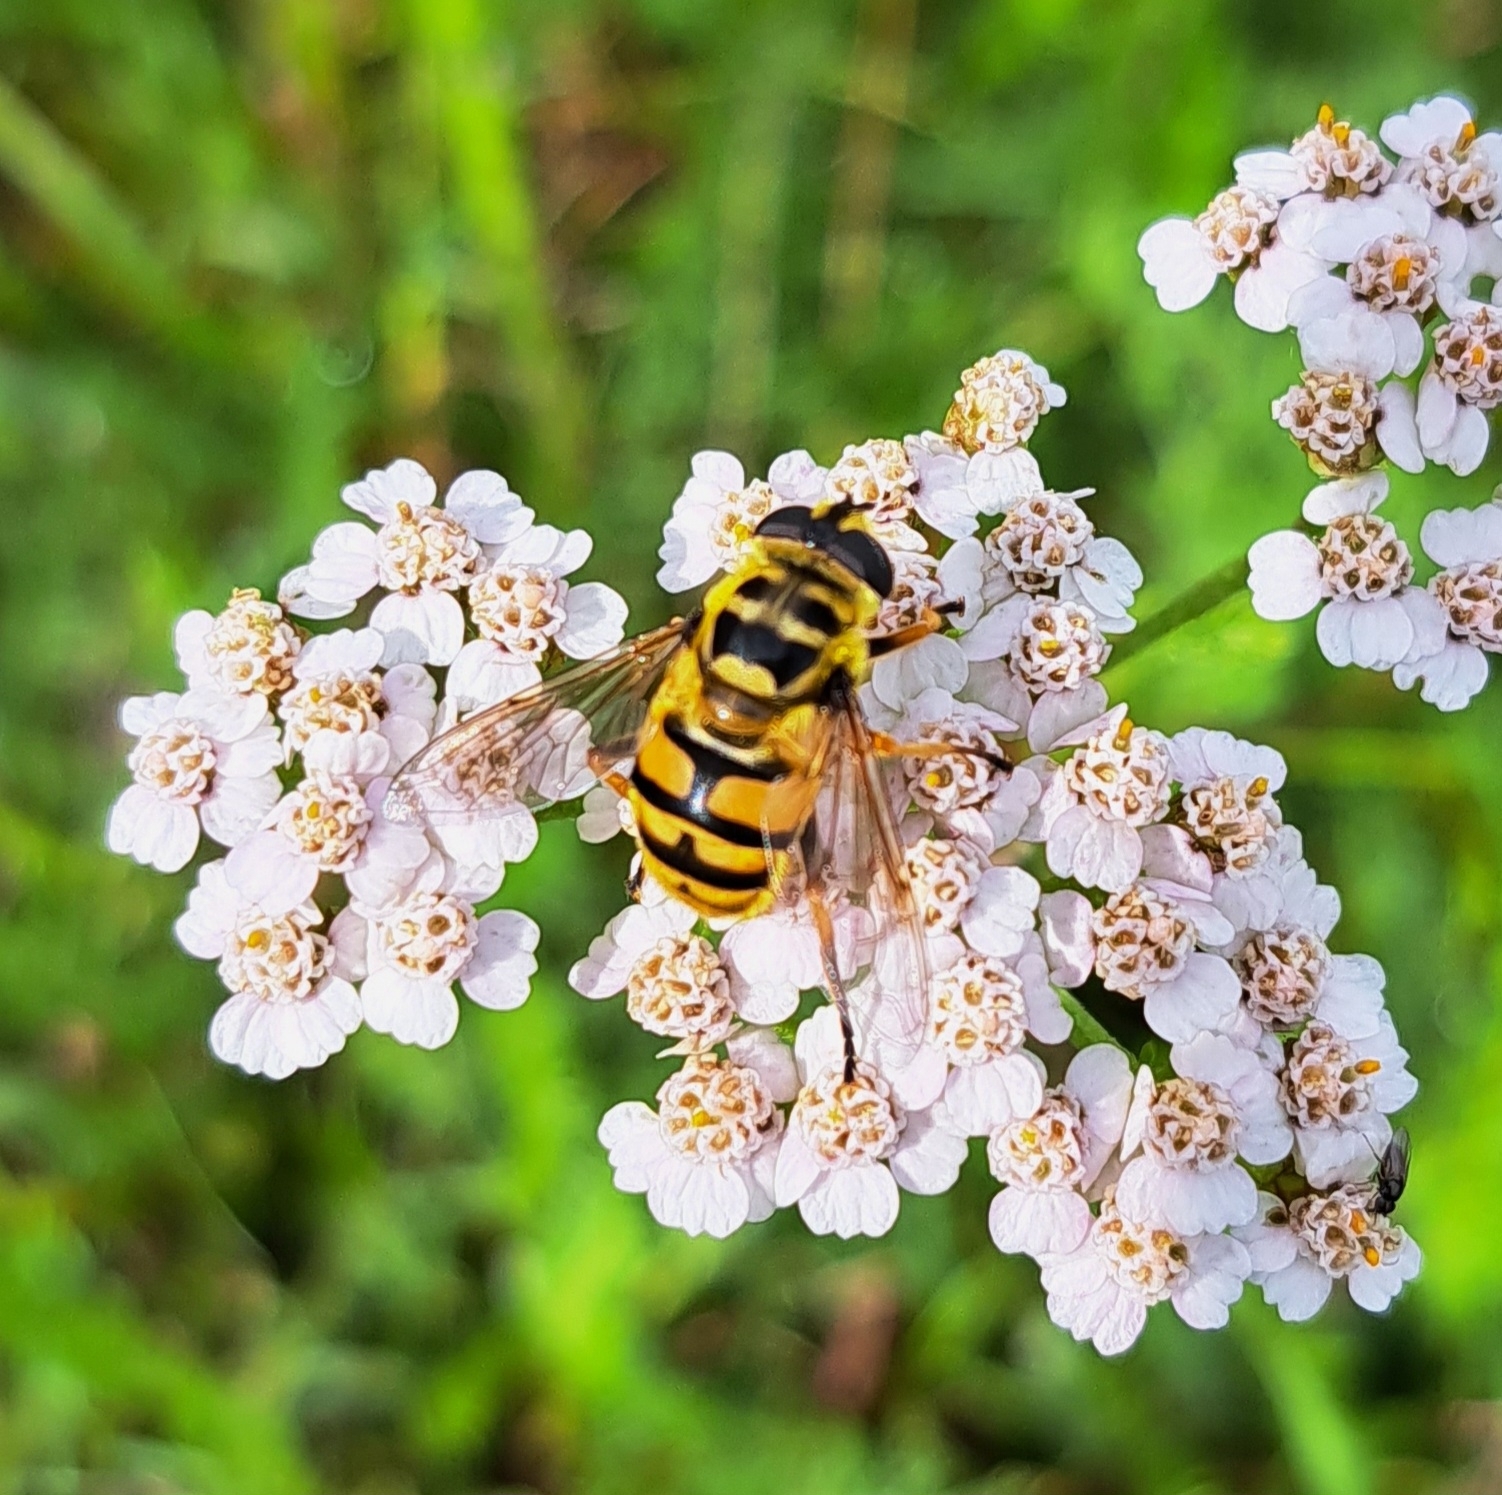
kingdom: Animalia
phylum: Arthropoda
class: Insecta
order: Diptera
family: Syrphidae
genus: Myathropa
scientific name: Myathropa florea
